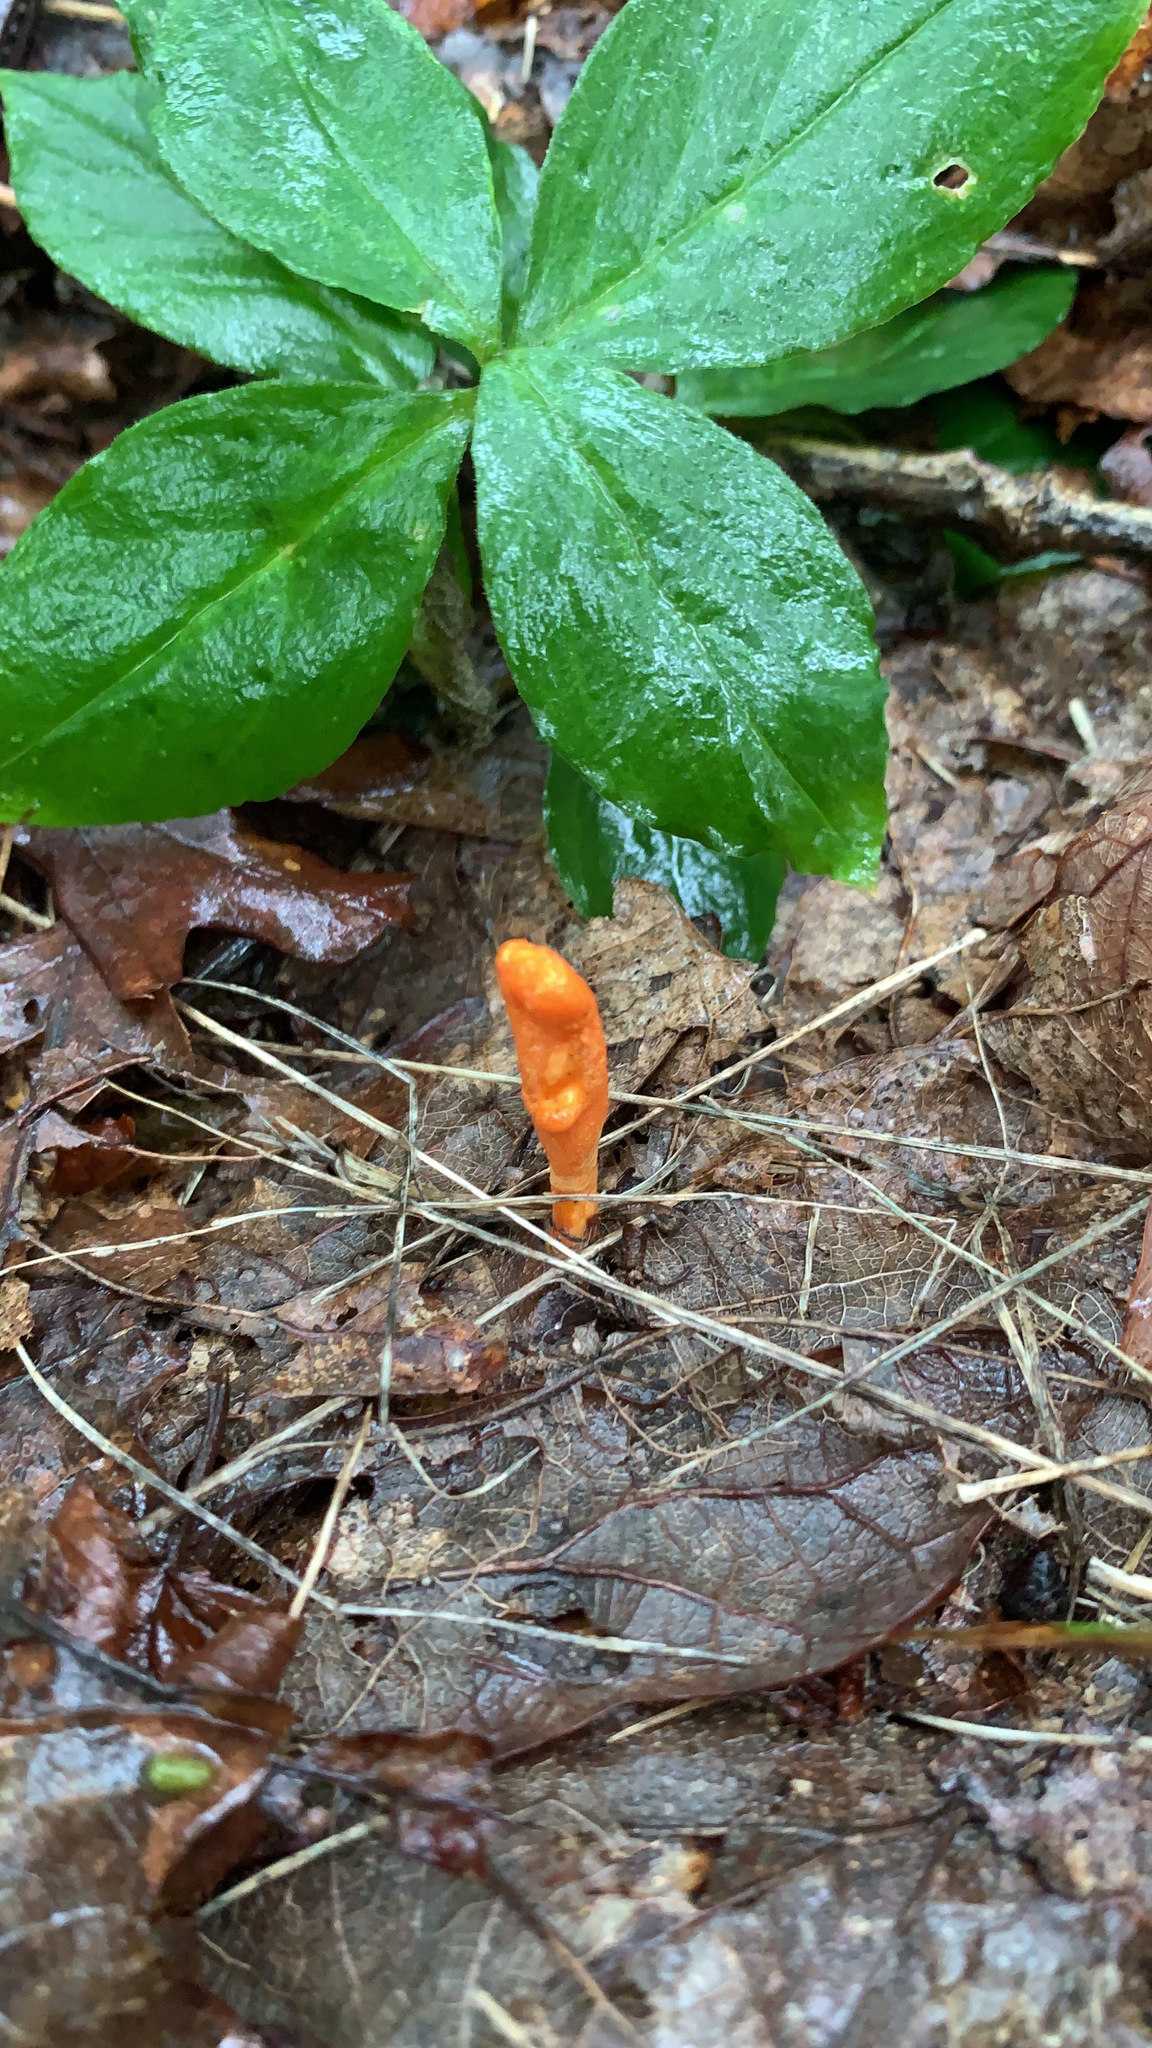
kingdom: Fungi
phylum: Ascomycota
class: Sordariomycetes
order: Hypocreales
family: Cordycipitaceae
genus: Cordyceps
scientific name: Cordyceps militaris
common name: Scarlet caterpillar fungus
